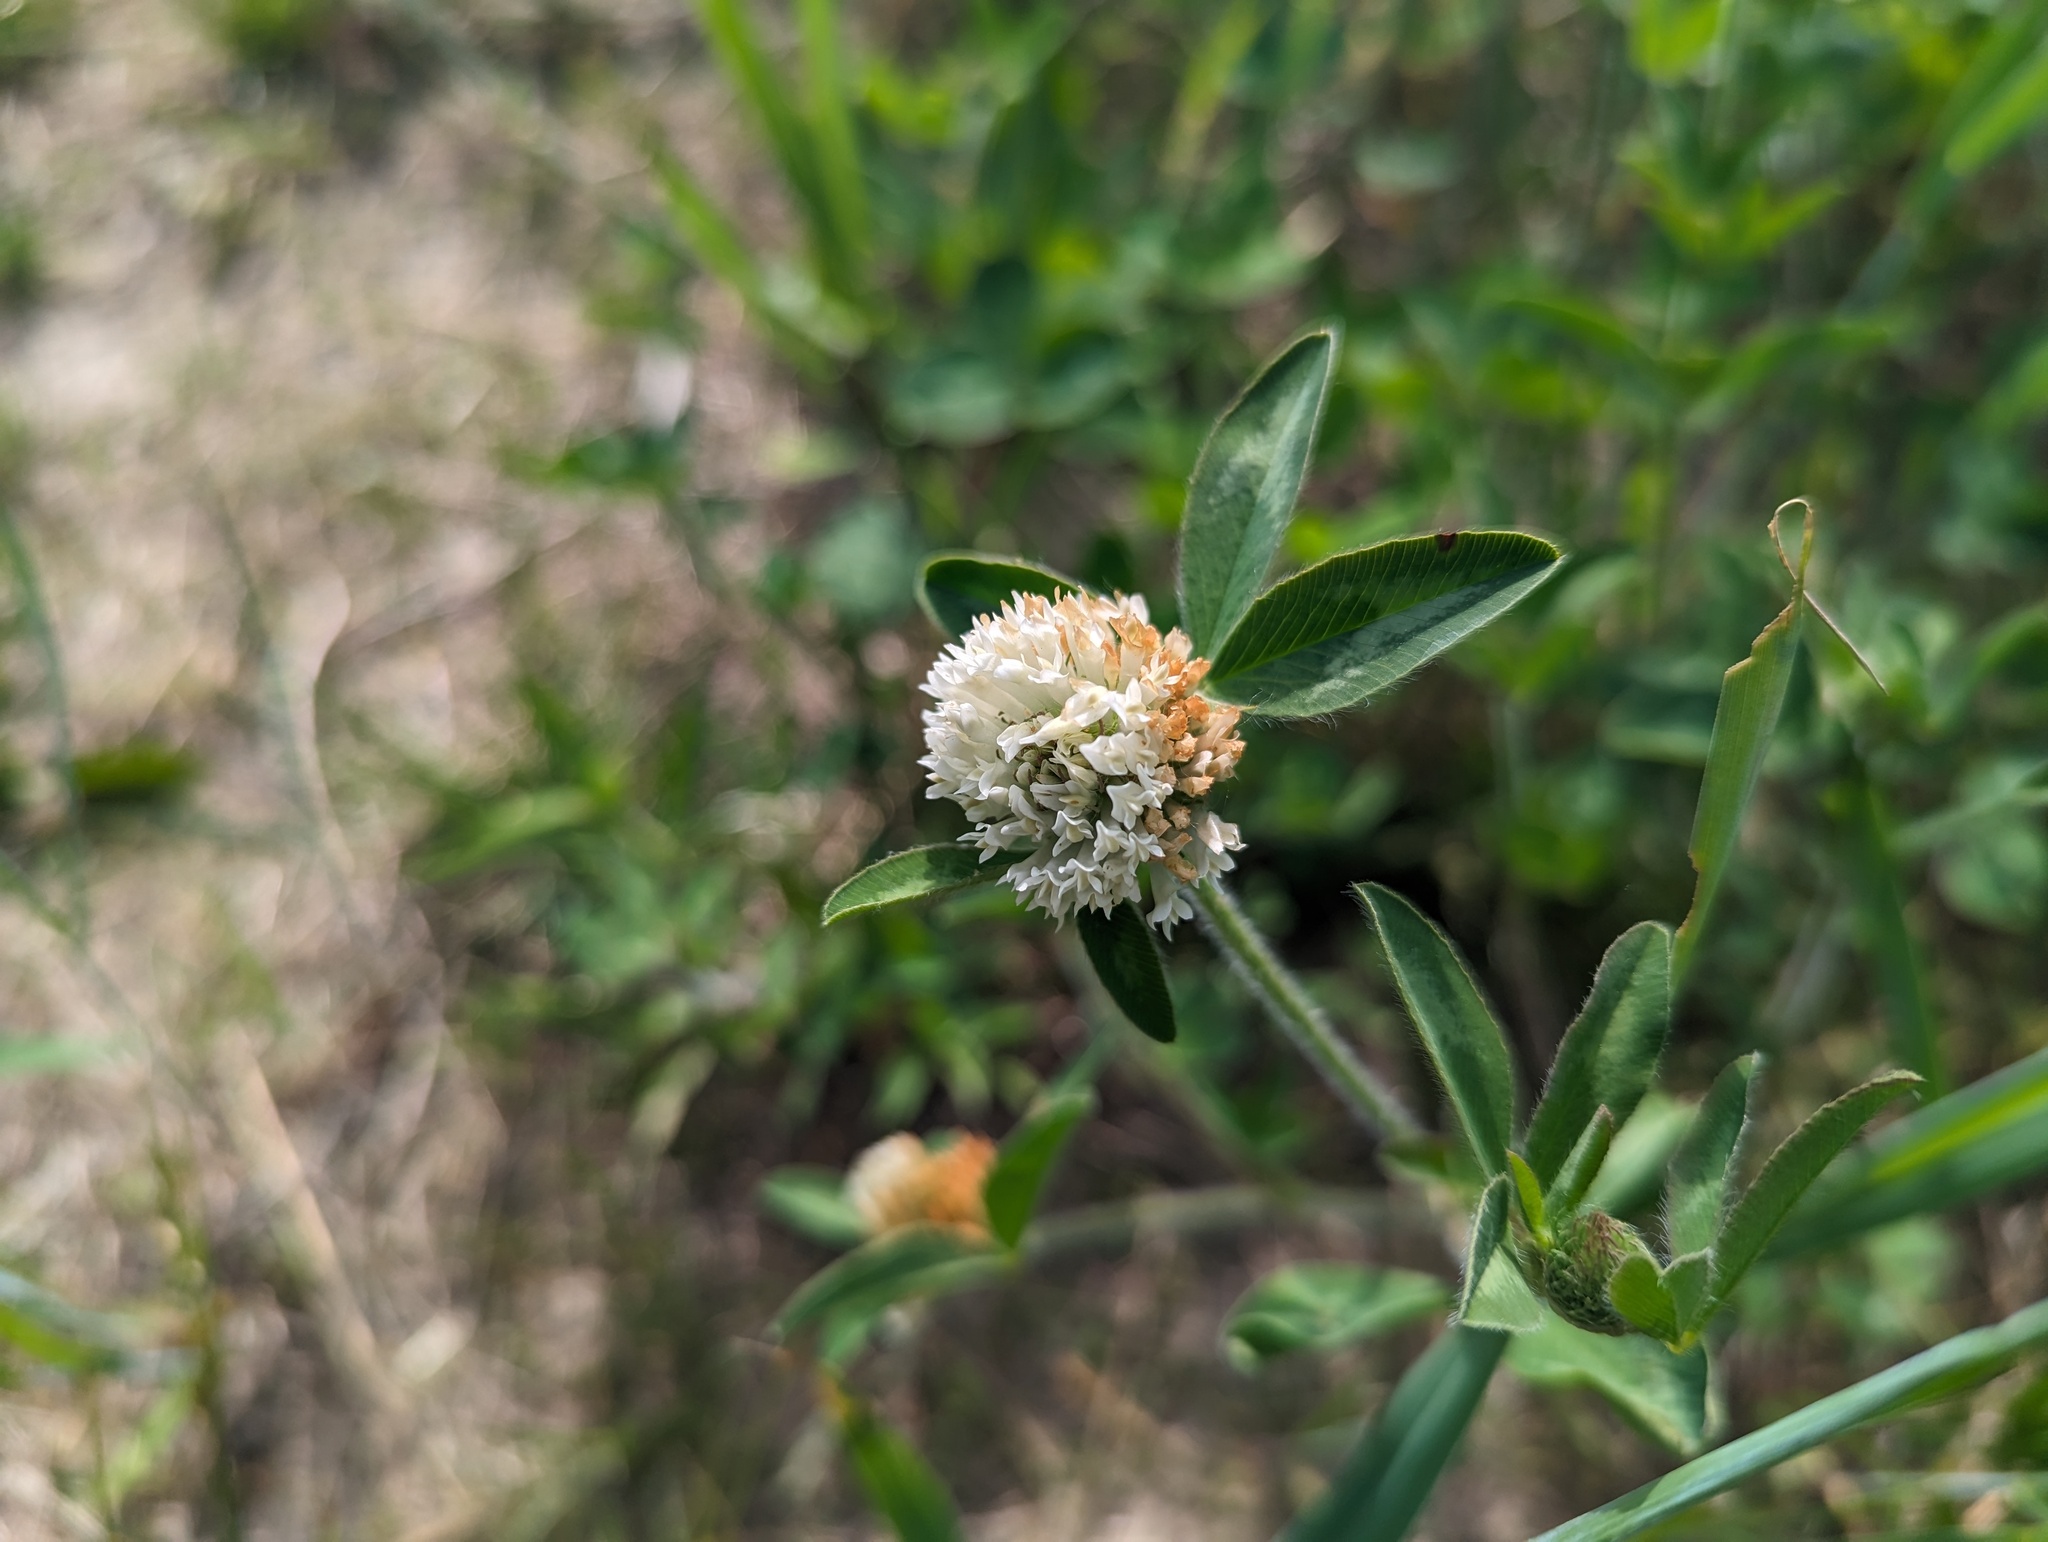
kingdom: Plantae
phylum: Tracheophyta
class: Magnoliopsida
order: Fabales
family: Fabaceae
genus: Trifolium
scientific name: Trifolium pratense
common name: Red clover
